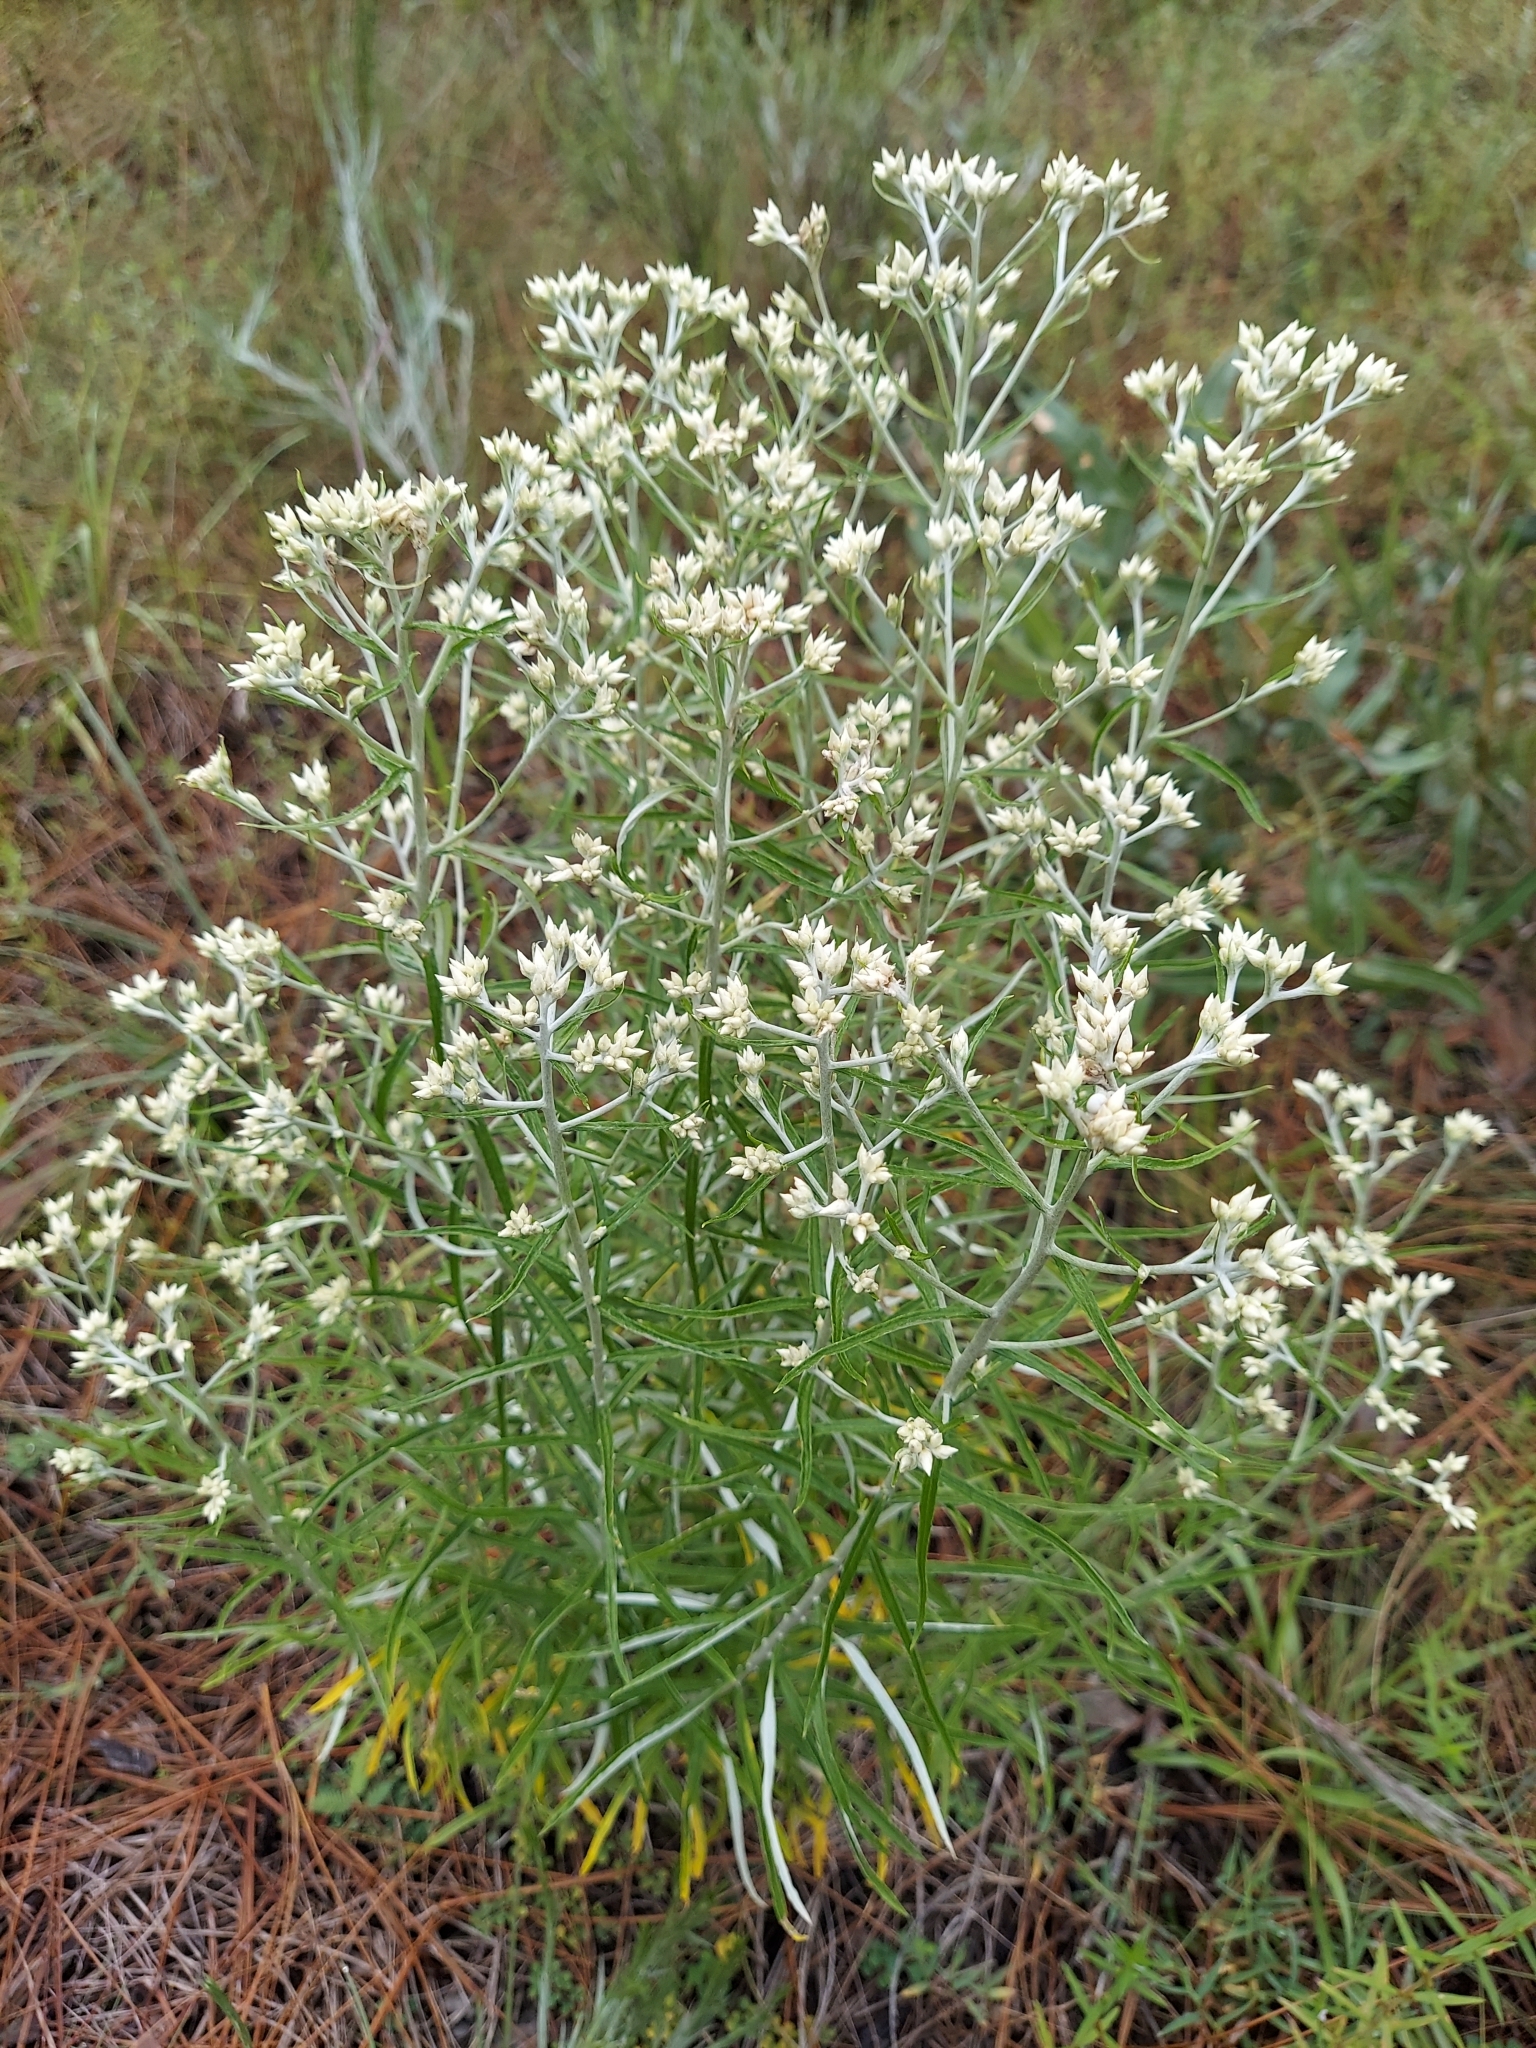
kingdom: Plantae
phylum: Tracheophyta
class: Magnoliopsida
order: Asterales
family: Asteraceae
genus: Pseudognaphalium
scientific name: Pseudognaphalium obtusifolium
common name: Eastern rabbit-tobacco
